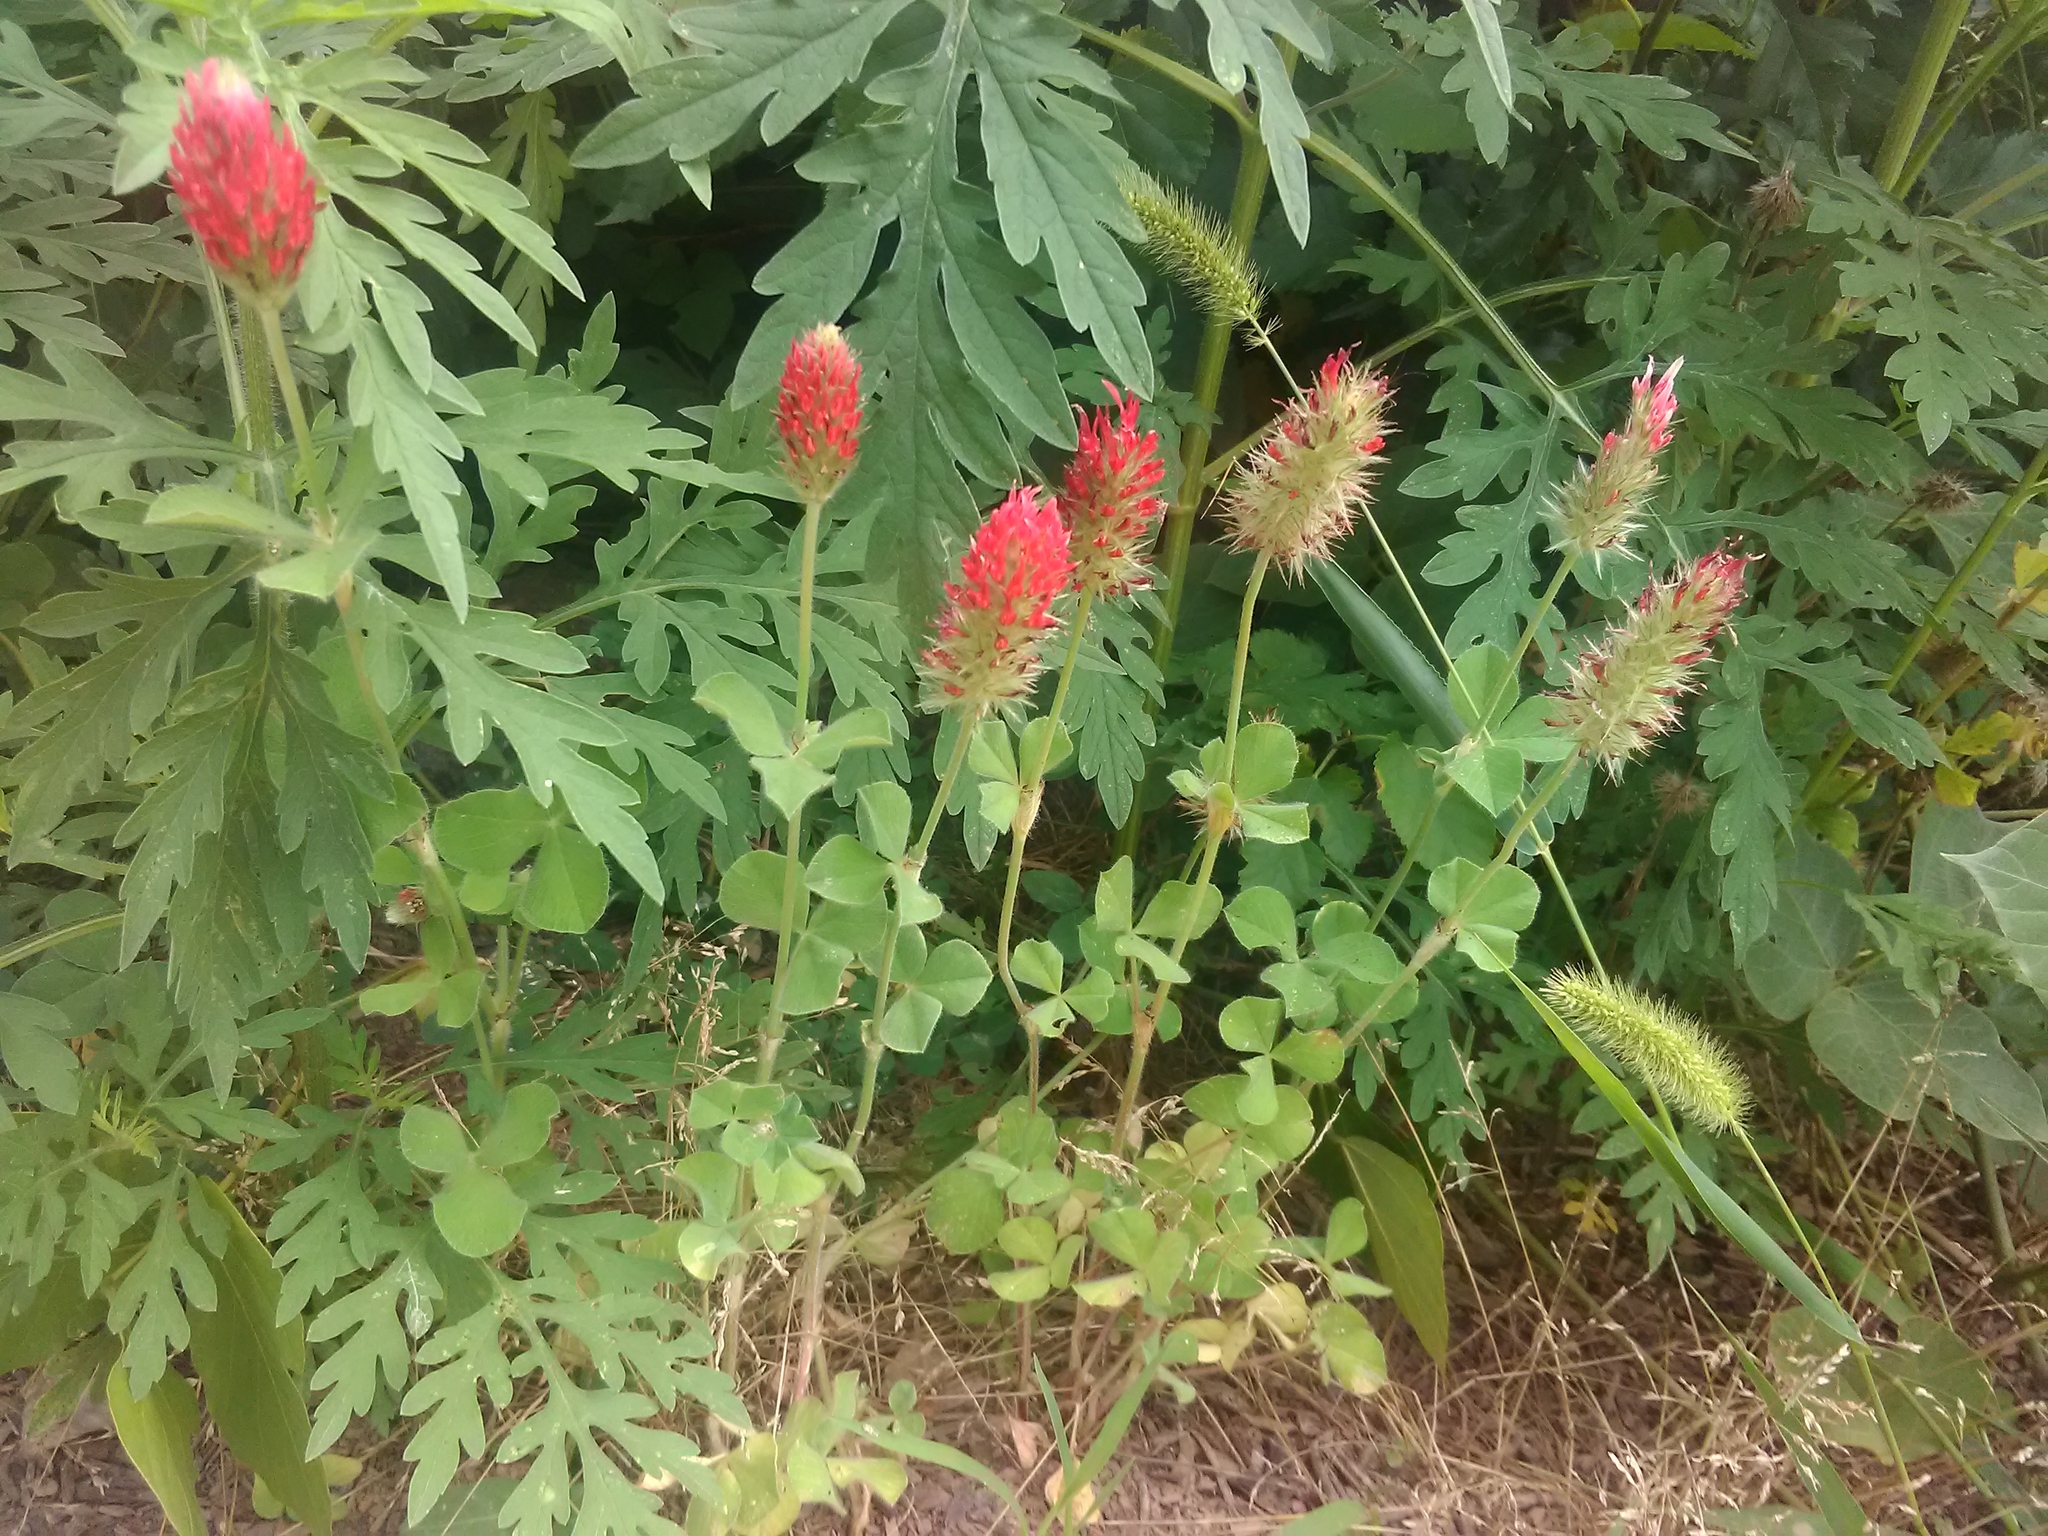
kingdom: Plantae
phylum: Tracheophyta
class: Magnoliopsida
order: Fabales
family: Fabaceae
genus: Trifolium
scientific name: Trifolium incarnatum
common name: Crimson clover
